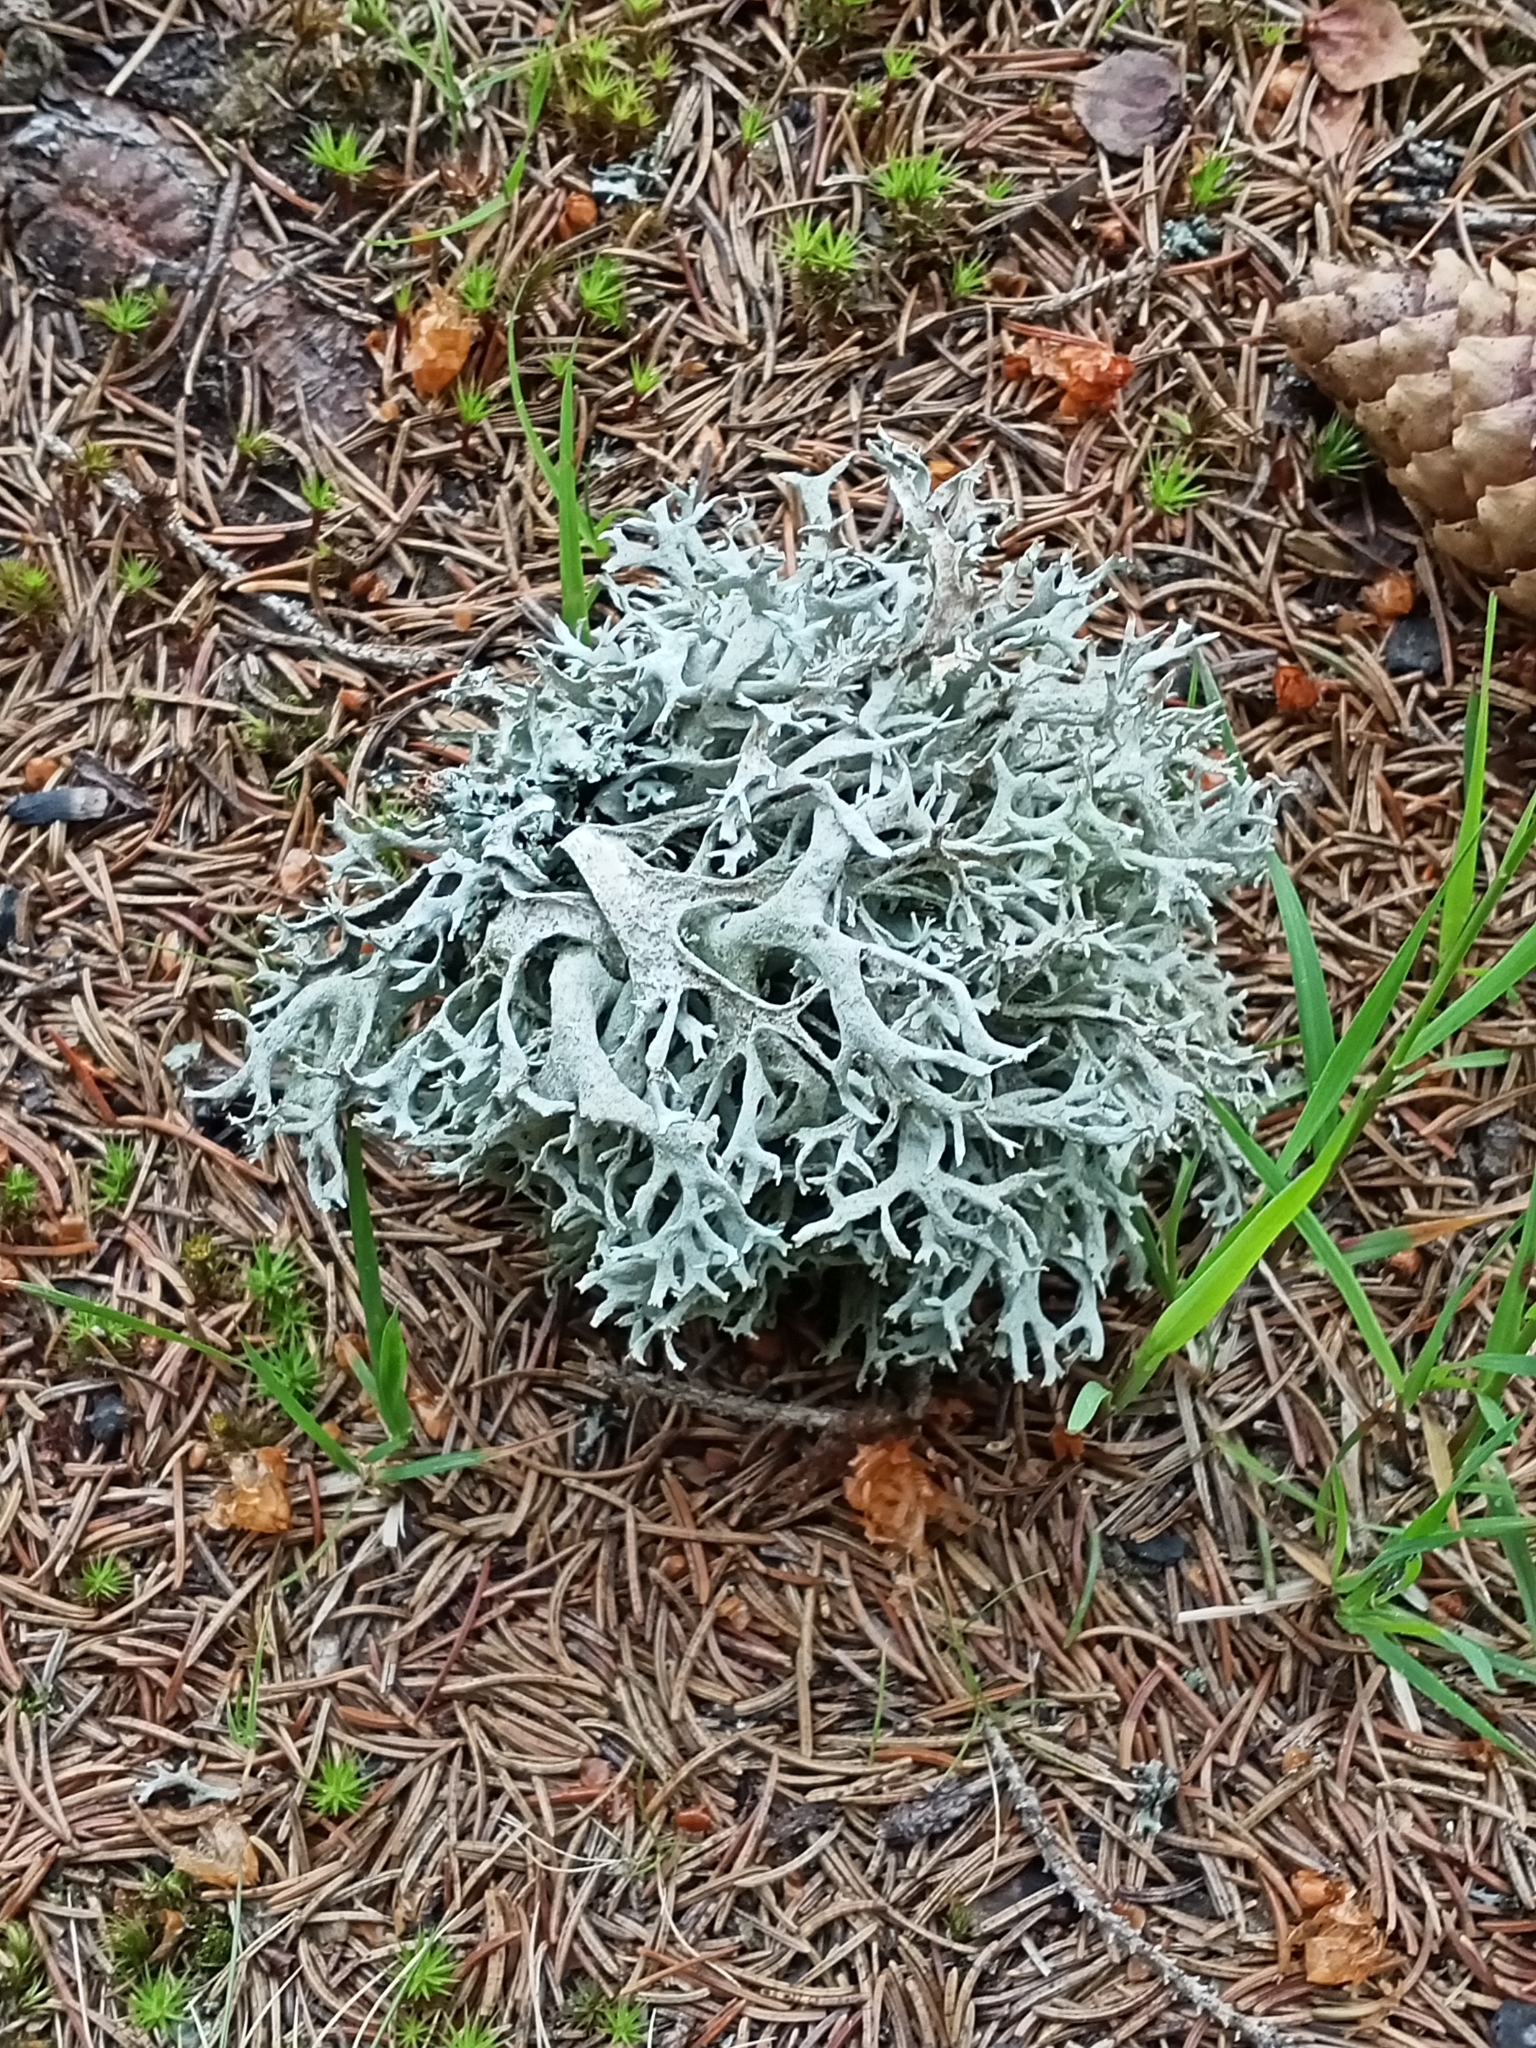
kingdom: Fungi
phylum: Ascomycota
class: Lecanoromycetes
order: Lecanorales
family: Parmeliaceae
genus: Pseudevernia
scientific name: Pseudevernia furfuracea
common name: Tree moss
